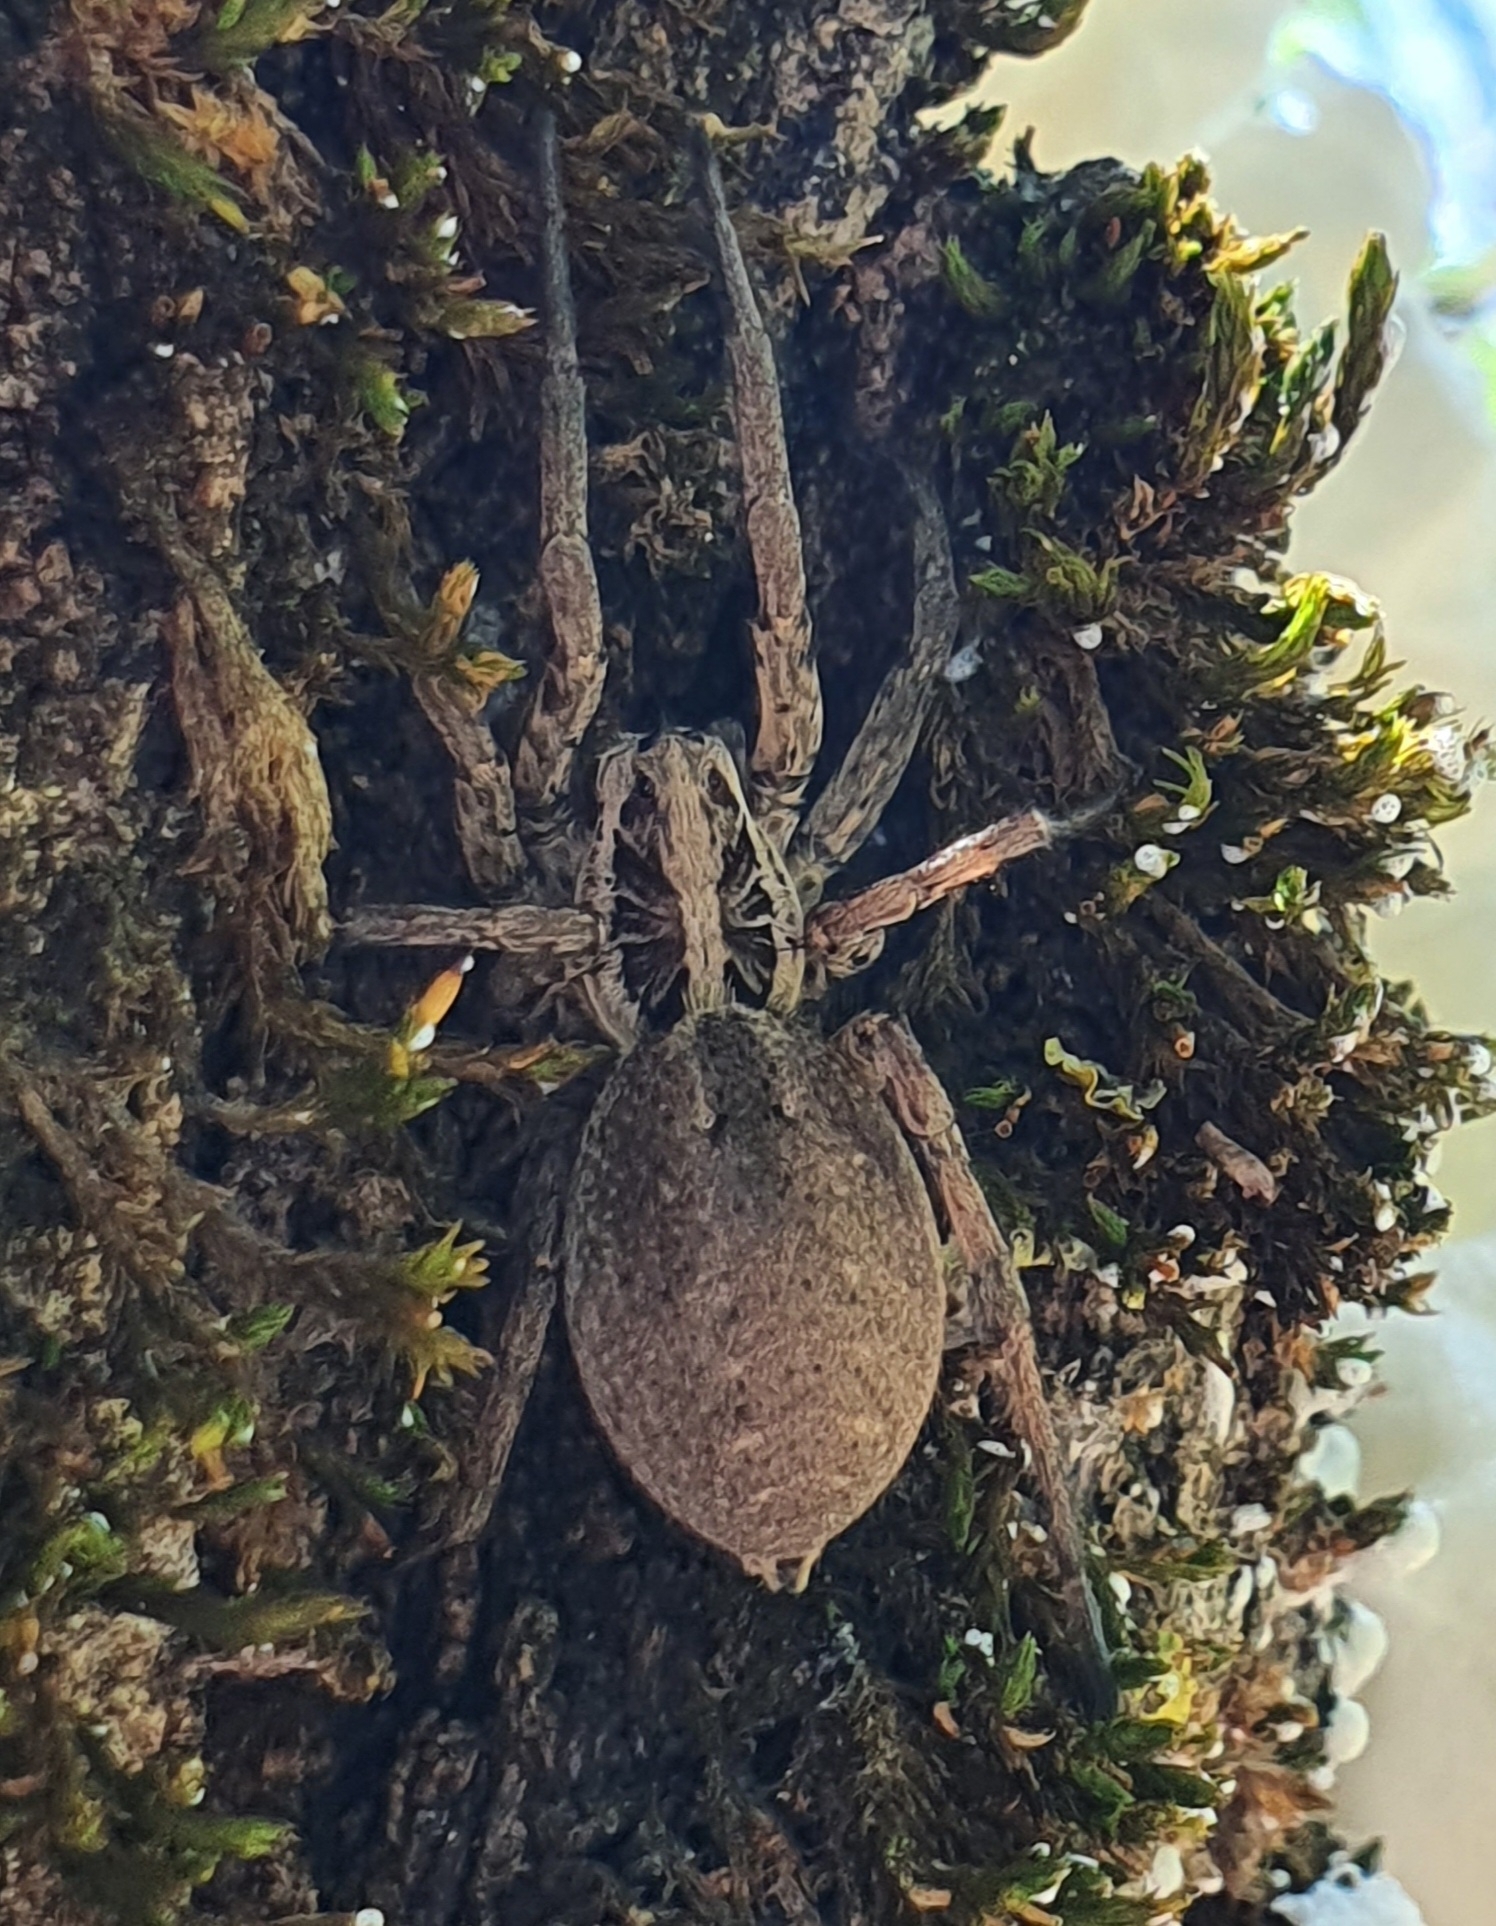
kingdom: Animalia
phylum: Arthropoda
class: Arachnida
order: Araneae
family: Lycosidae
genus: Hogna
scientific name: Hogna radiata
